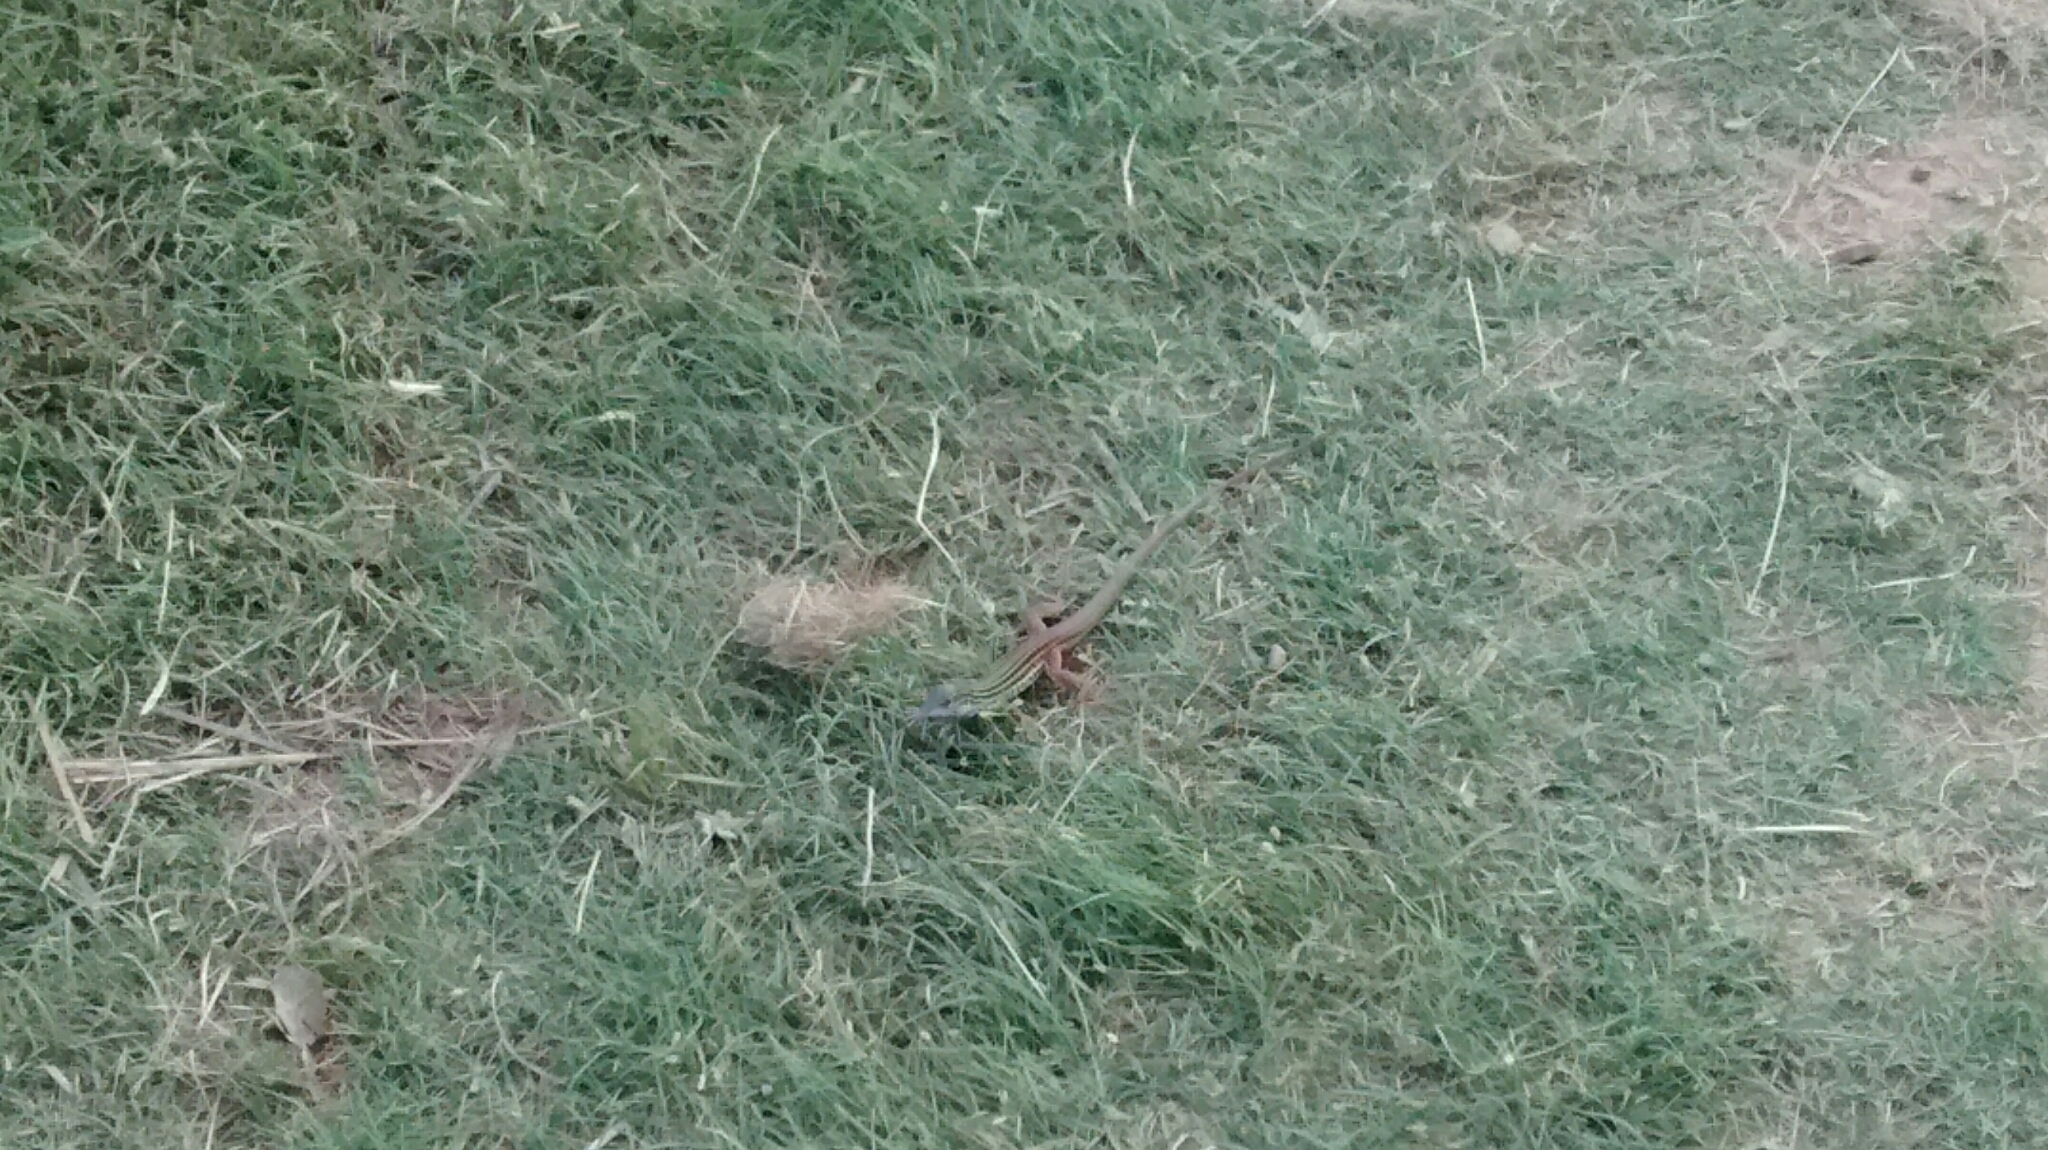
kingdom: Animalia
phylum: Chordata
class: Squamata
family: Teiidae
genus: Aspidoscelis
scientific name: Aspidoscelis gularis
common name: Eastern spotted whiptail
